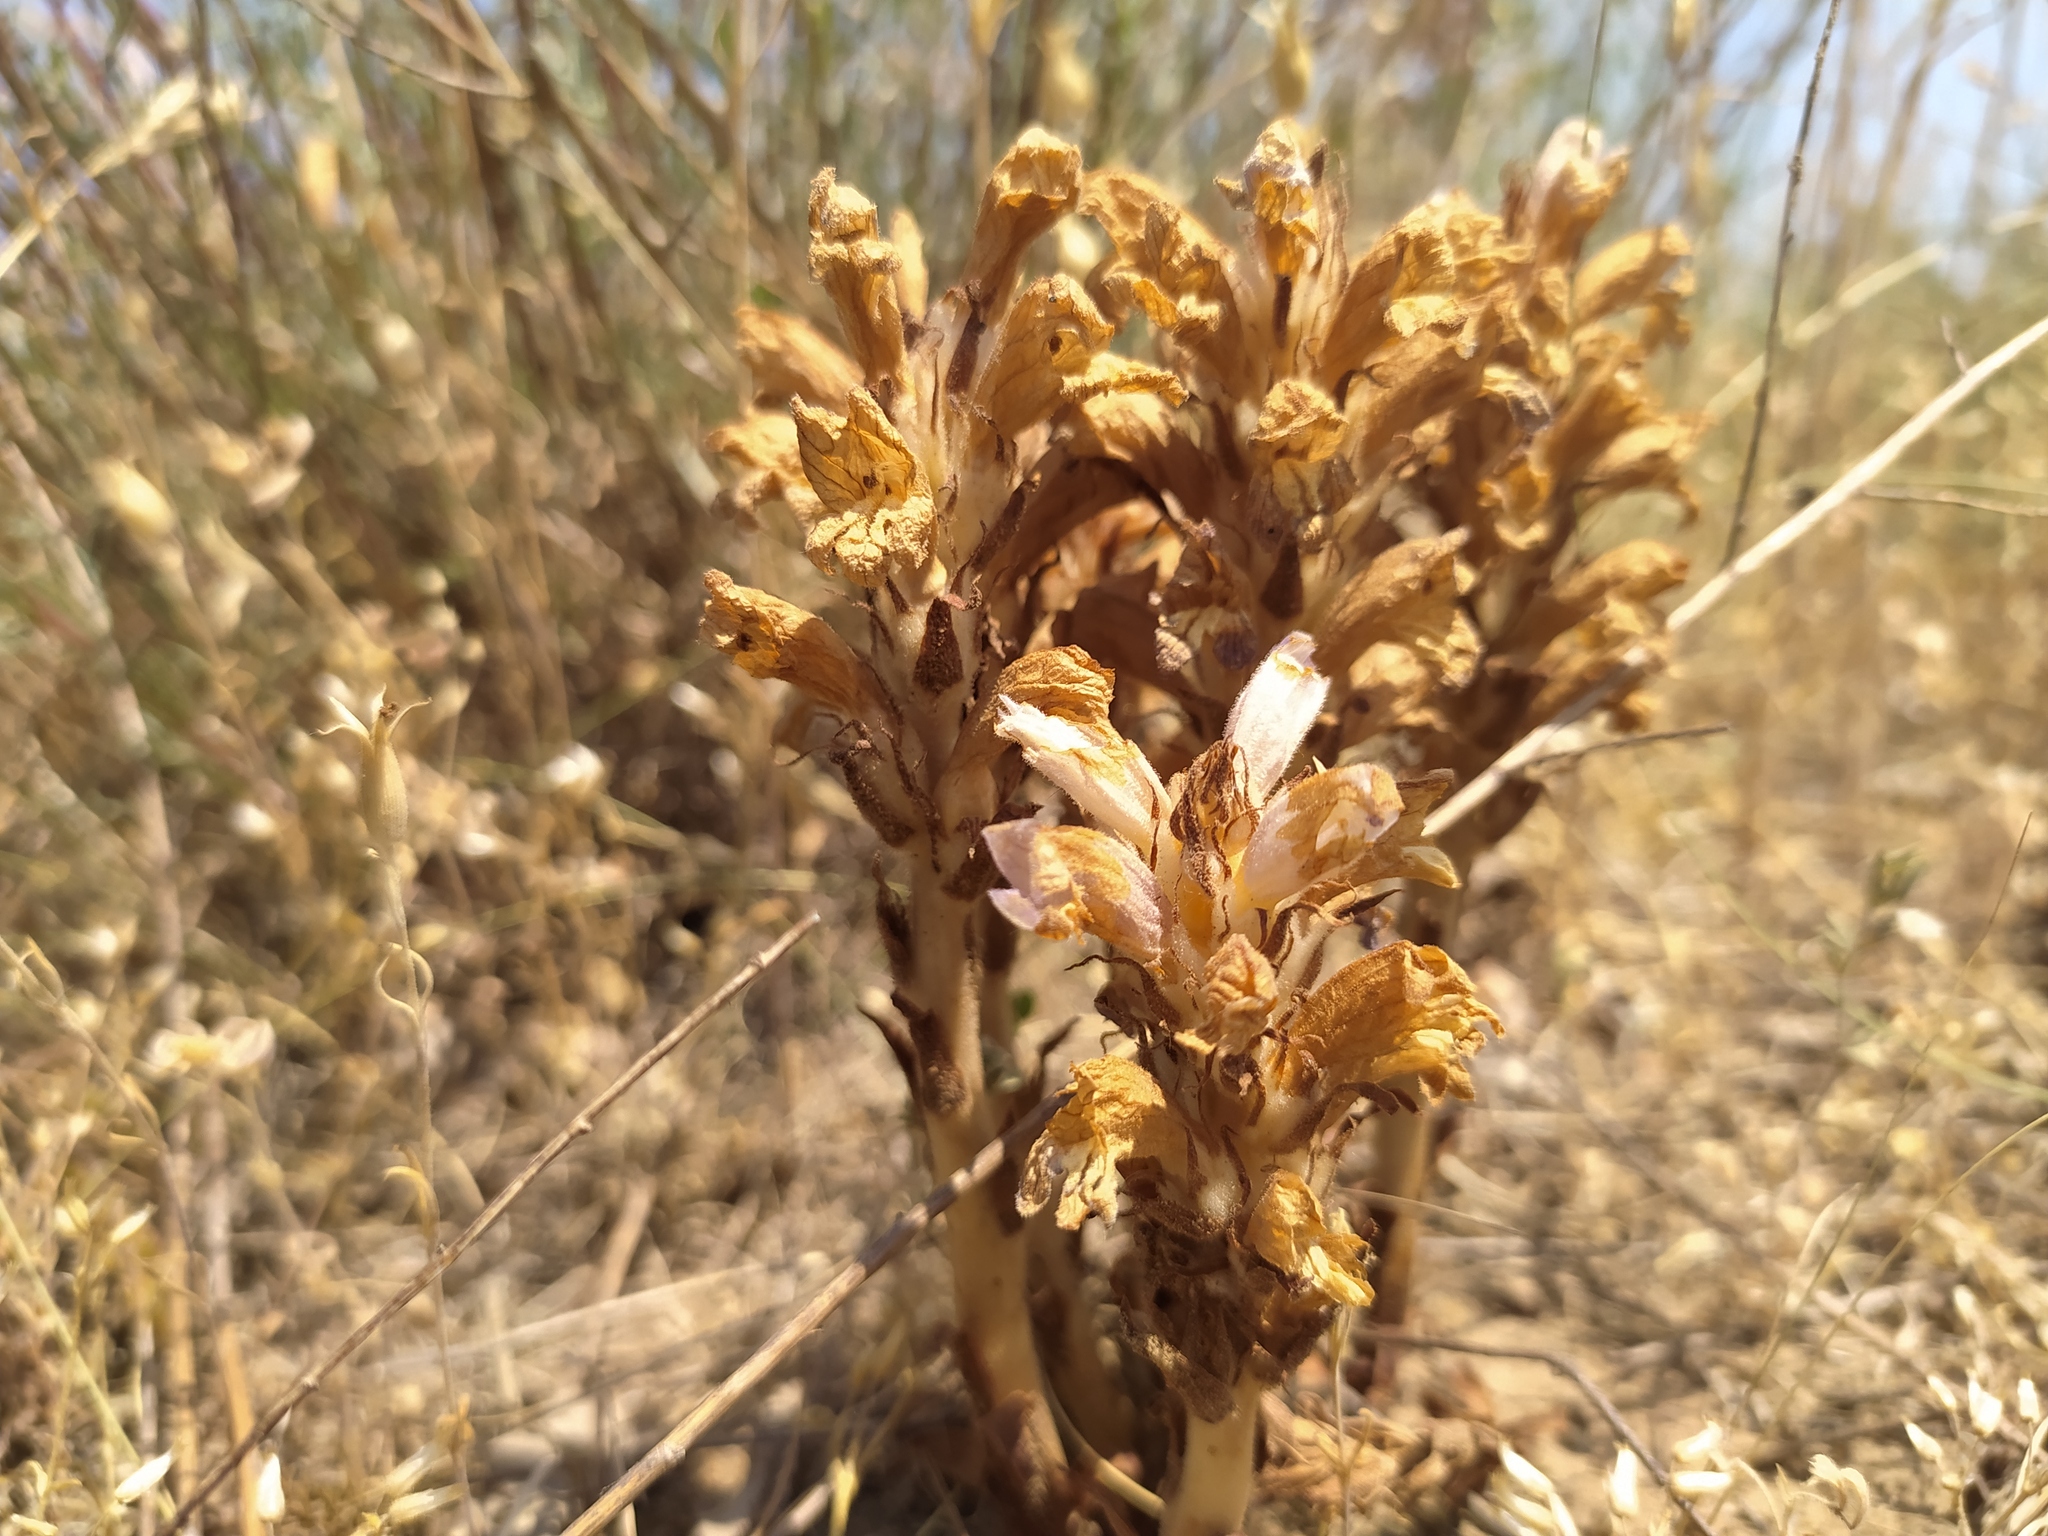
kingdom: Plantae
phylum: Tracheophyta
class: Magnoliopsida
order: Lamiales
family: Orobanchaceae
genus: Phelipanche
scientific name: Phelipanche arenaria
